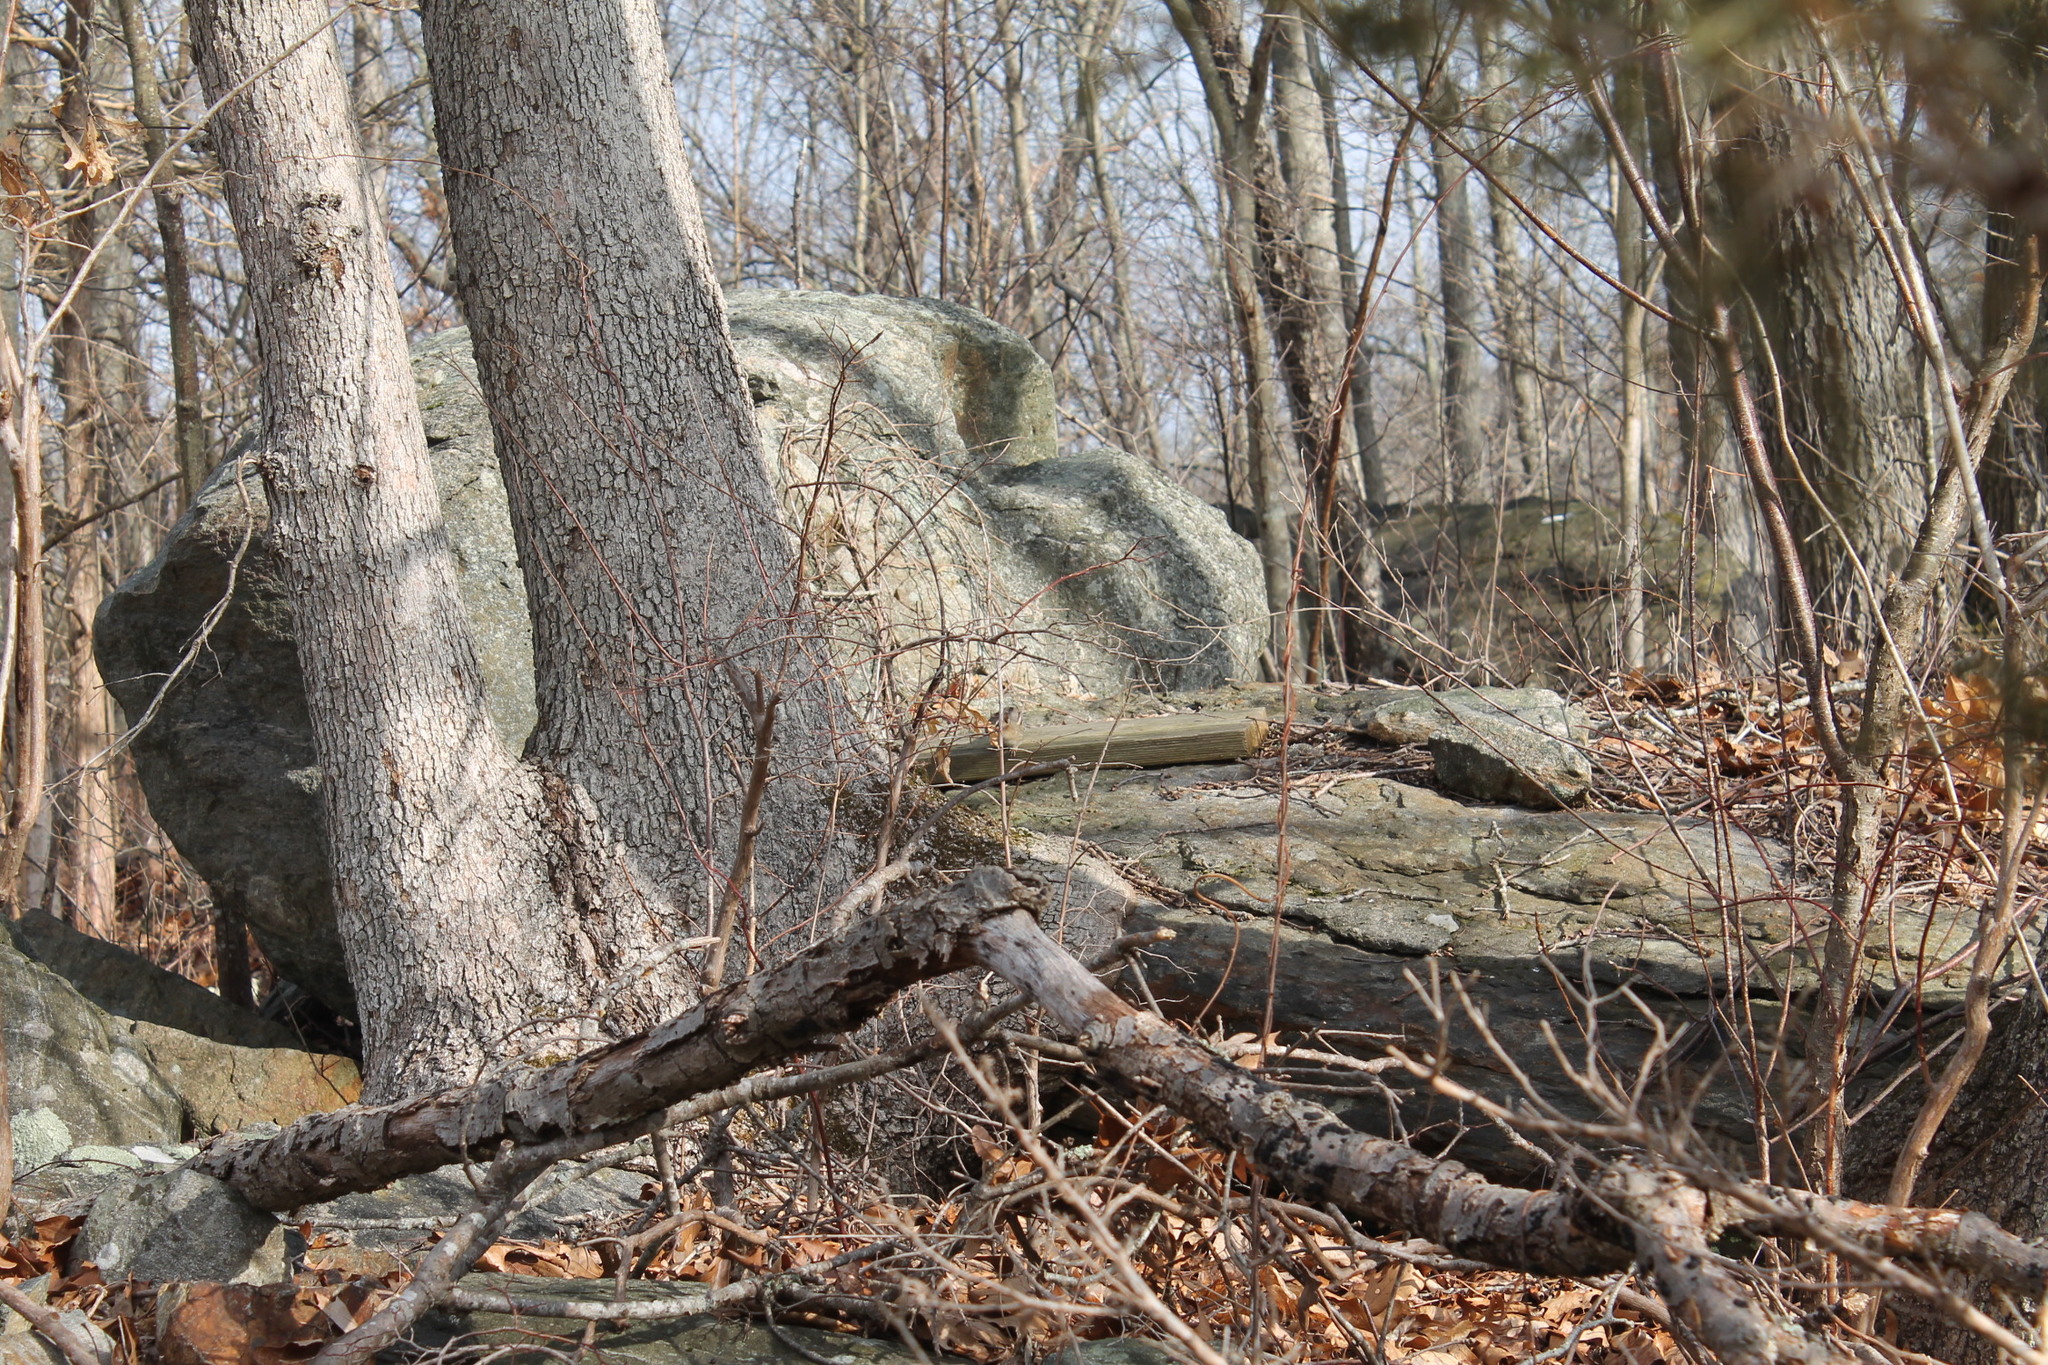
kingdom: Animalia
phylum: Chordata
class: Mammalia
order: Rodentia
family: Sciuridae
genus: Tamias
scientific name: Tamias striatus
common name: Eastern chipmunk
